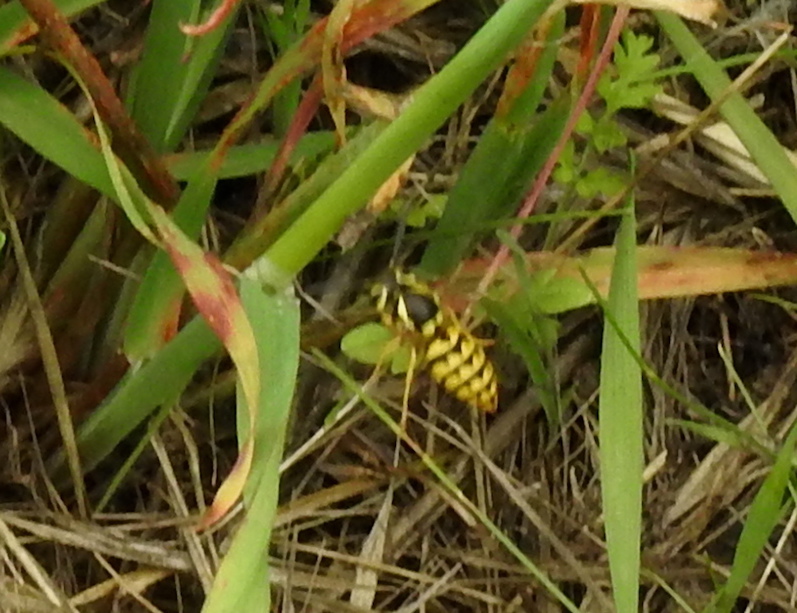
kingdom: Animalia
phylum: Arthropoda
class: Insecta
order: Hymenoptera
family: Vespidae
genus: Vespula
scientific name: Vespula pensylvanica
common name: Western yellowjacket
